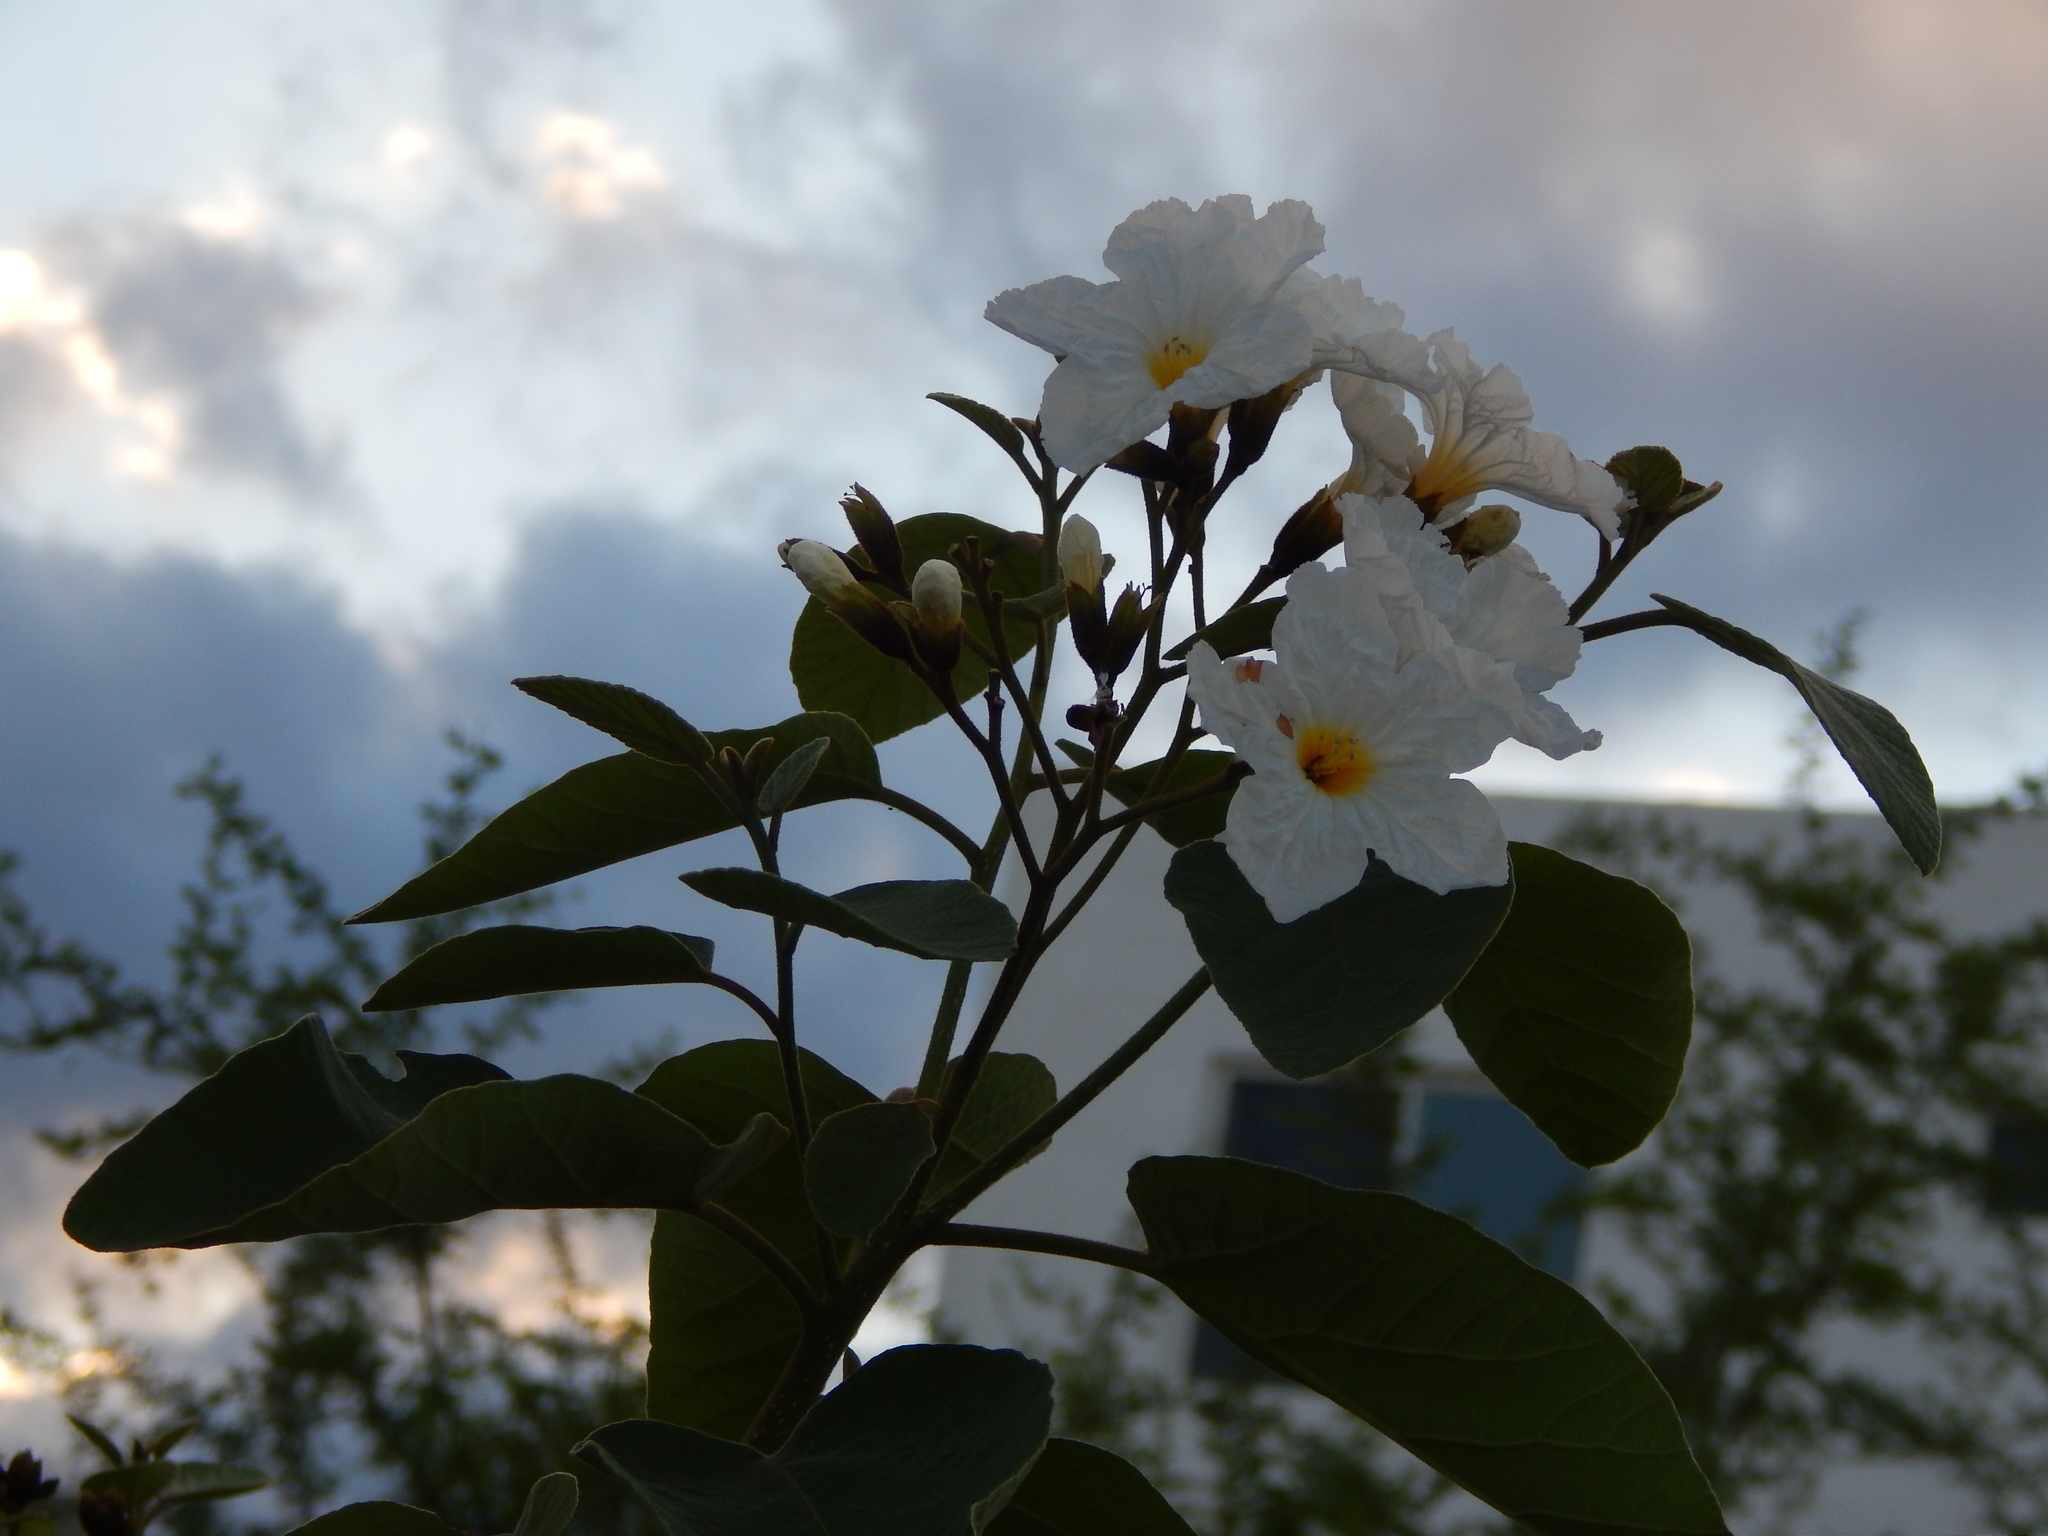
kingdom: Plantae
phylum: Tracheophyta
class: Magnoliopsida
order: Boraginales
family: Cordiaceae
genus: Cordia
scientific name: Cordia boissieri
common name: Mexican-olive
